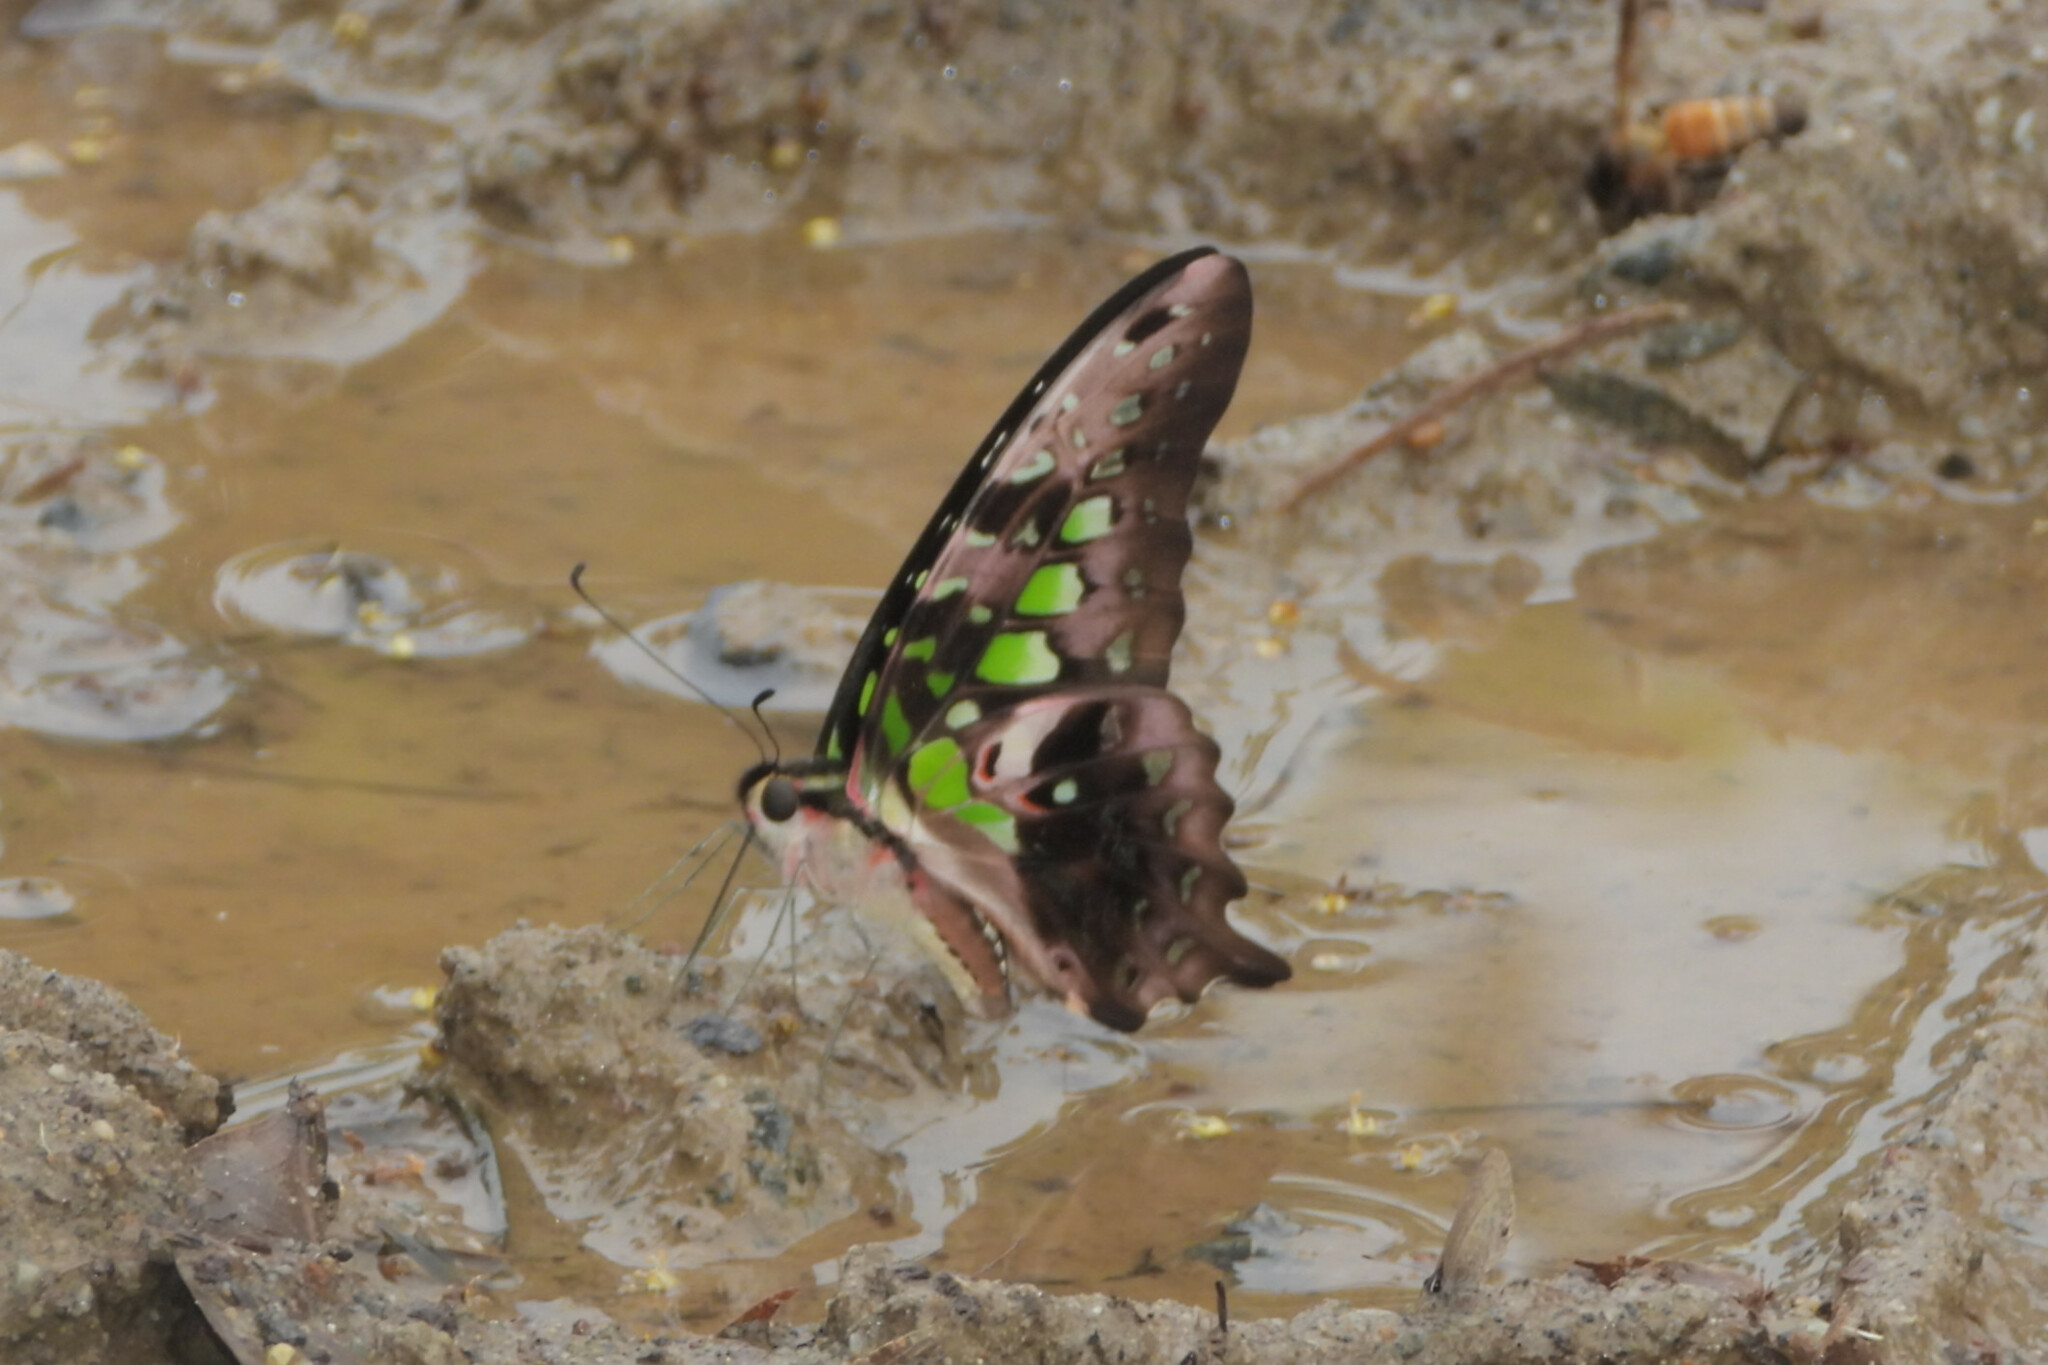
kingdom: Animalia
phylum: Arthropoda
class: Insecta
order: Lepidoptera
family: Papilionidae
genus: Graphium
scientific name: Graphium agamemnon
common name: Tailed jay
